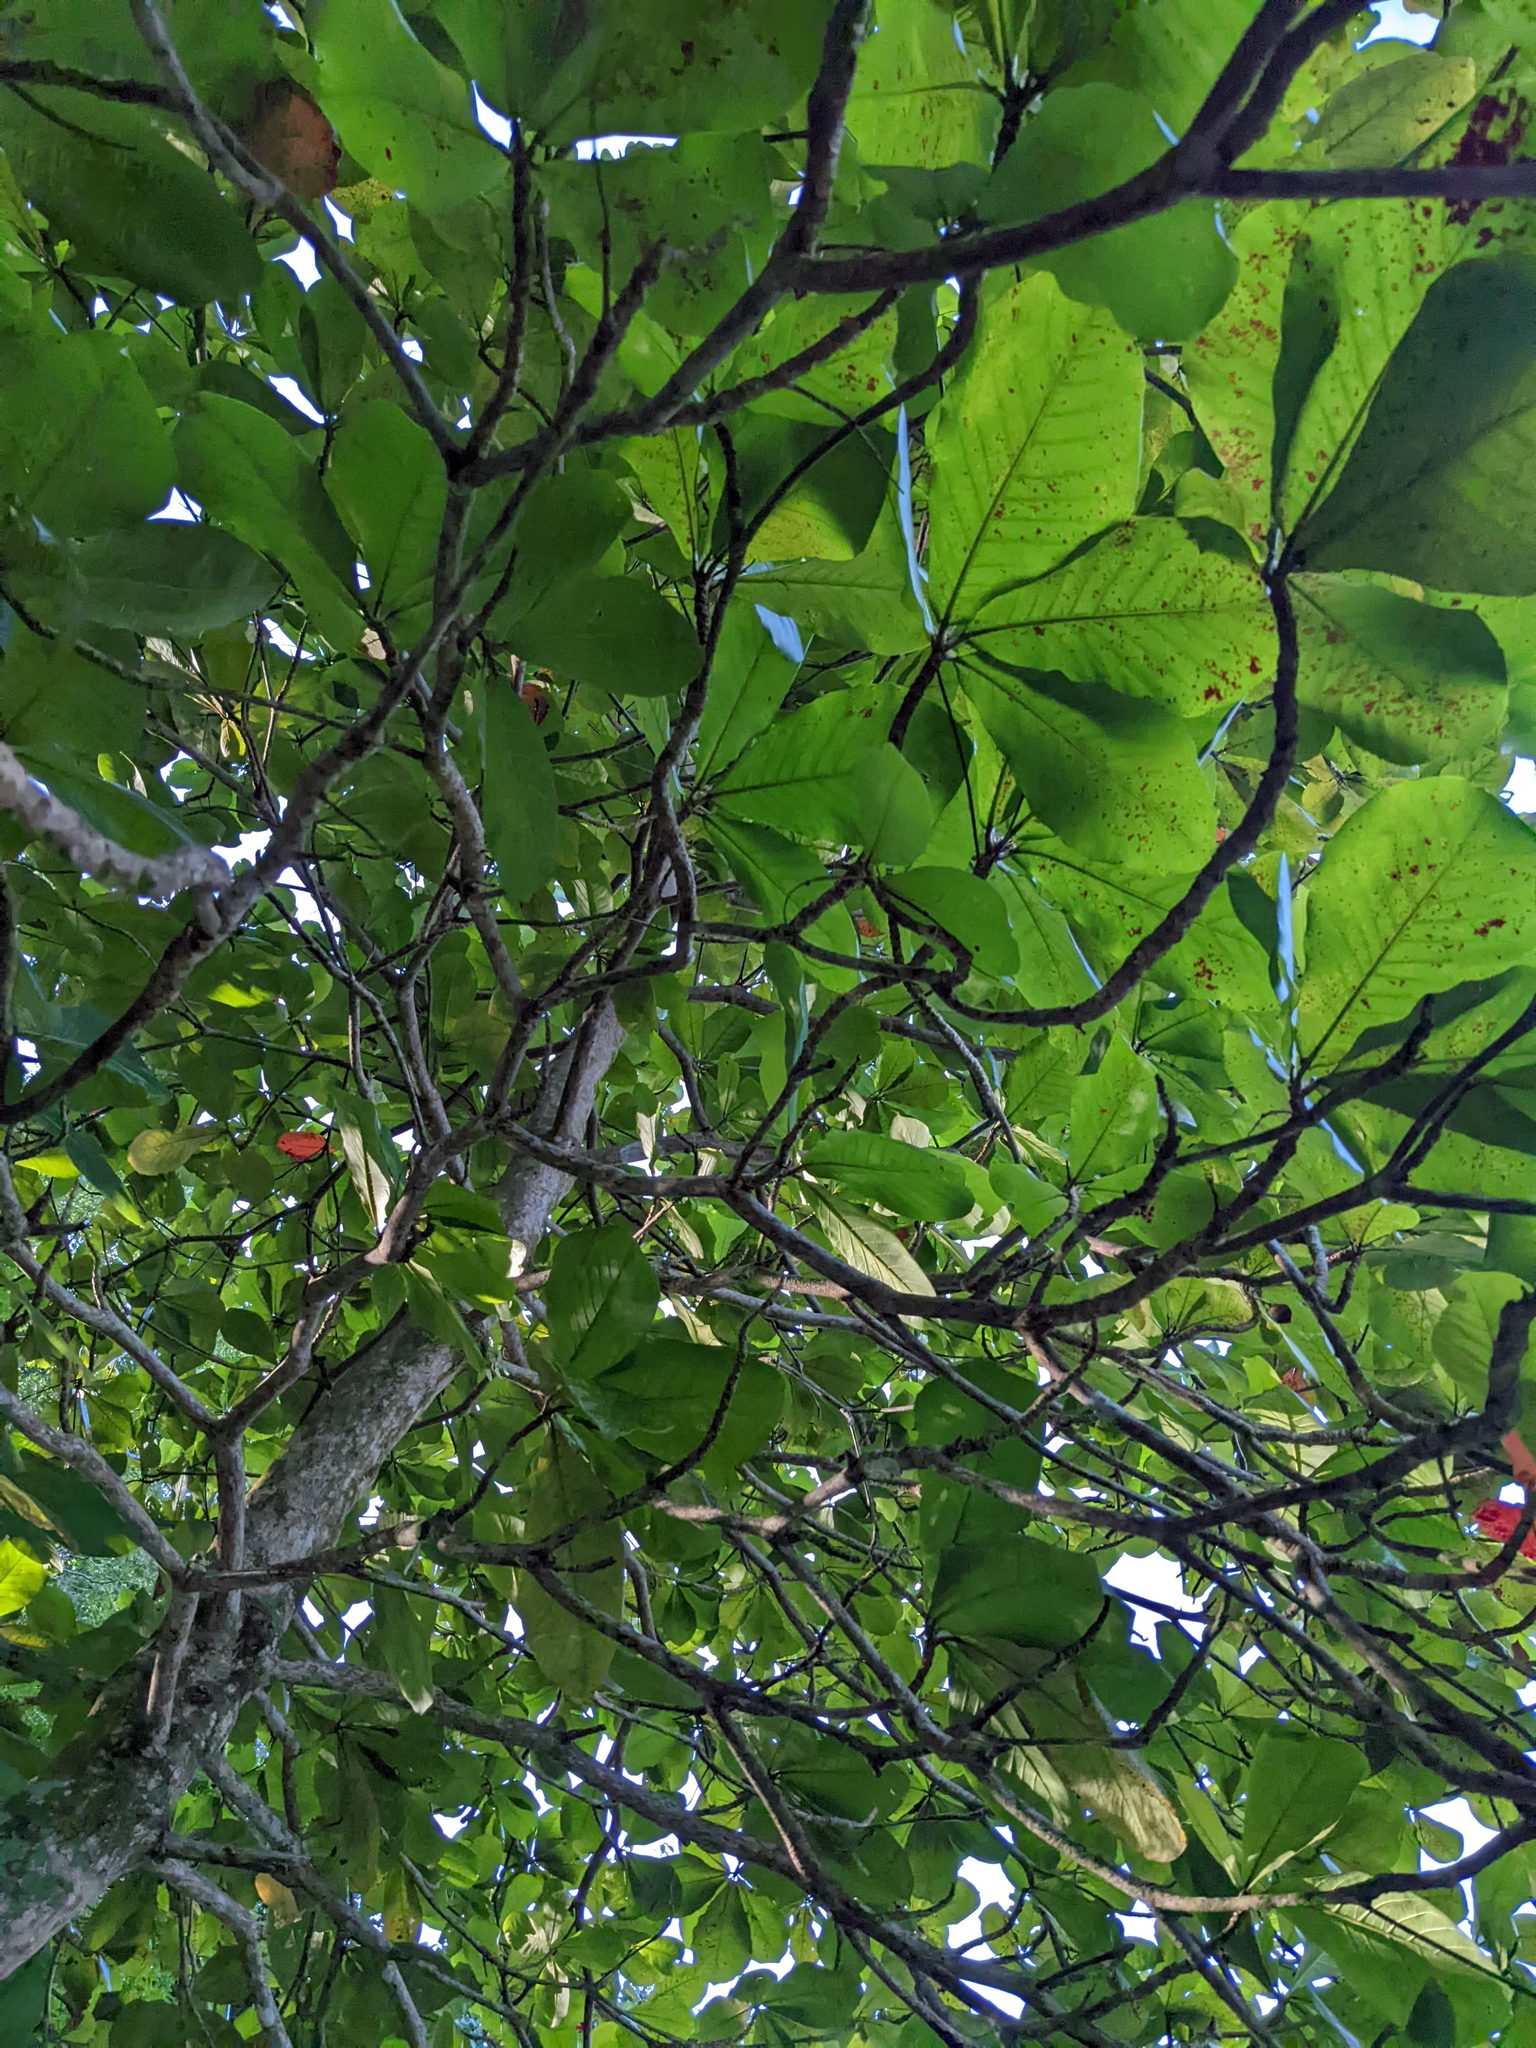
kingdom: Plantae
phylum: Tracheophyta
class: Magnoliopsida
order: Myrtales
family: Combretaceae
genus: Terminalia
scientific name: Terminalia catappa
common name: Tropical almond
